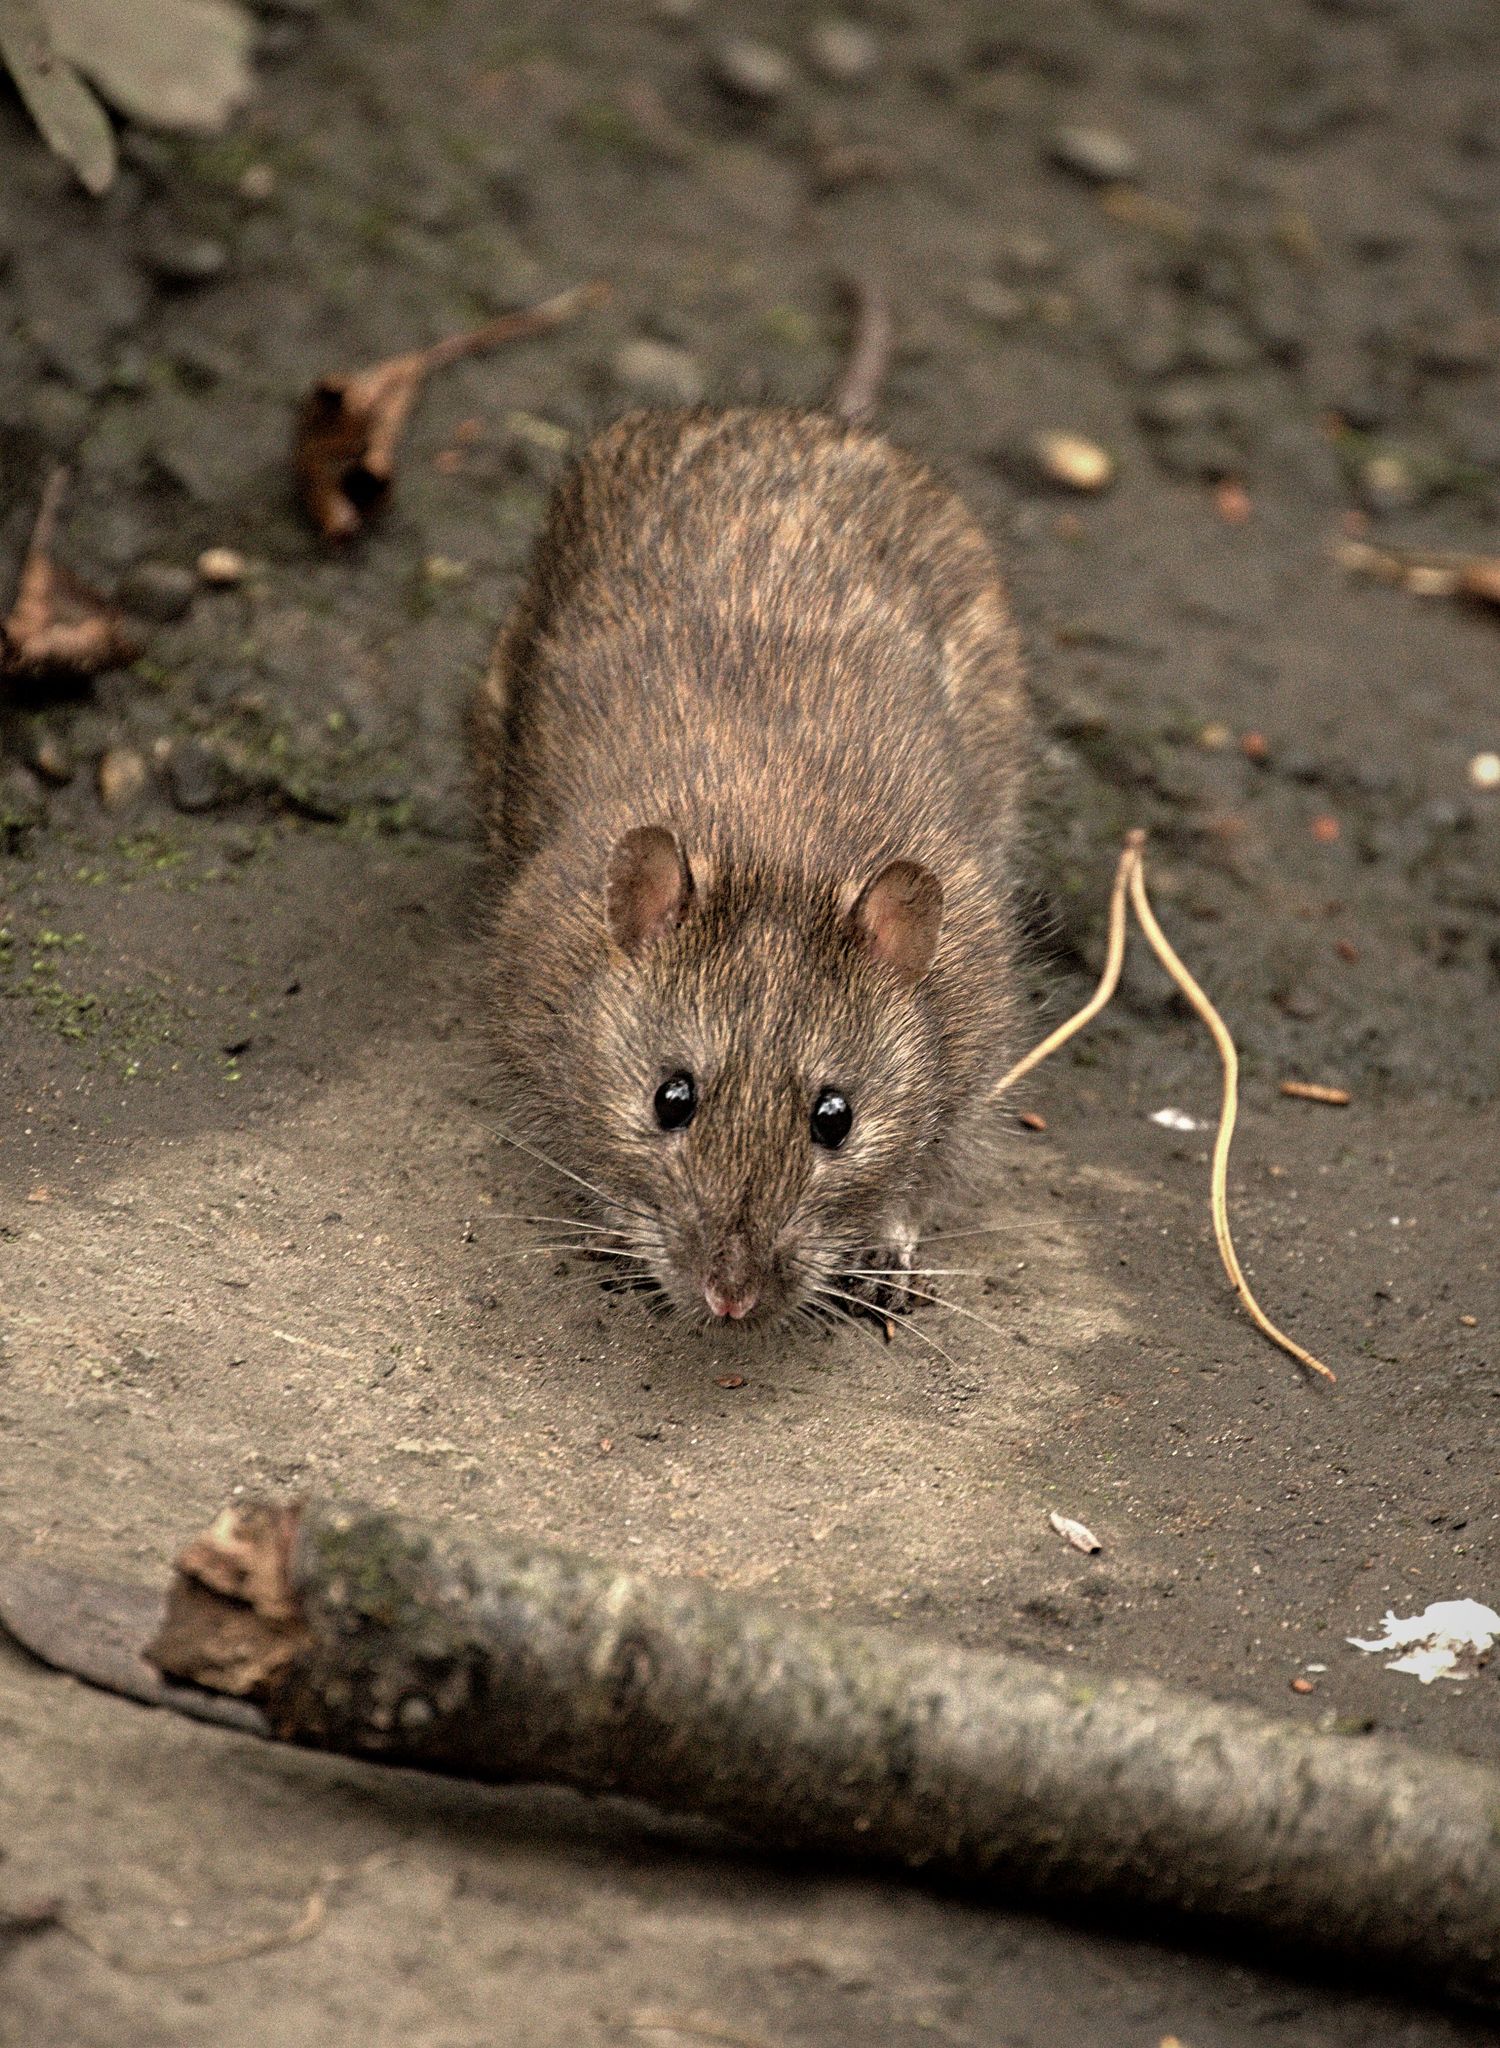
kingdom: Animalia
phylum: Chordata
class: Mammalia
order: Rodentia
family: Muridae
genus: Rattus
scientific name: Rattus norvegicus
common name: Brown rat
